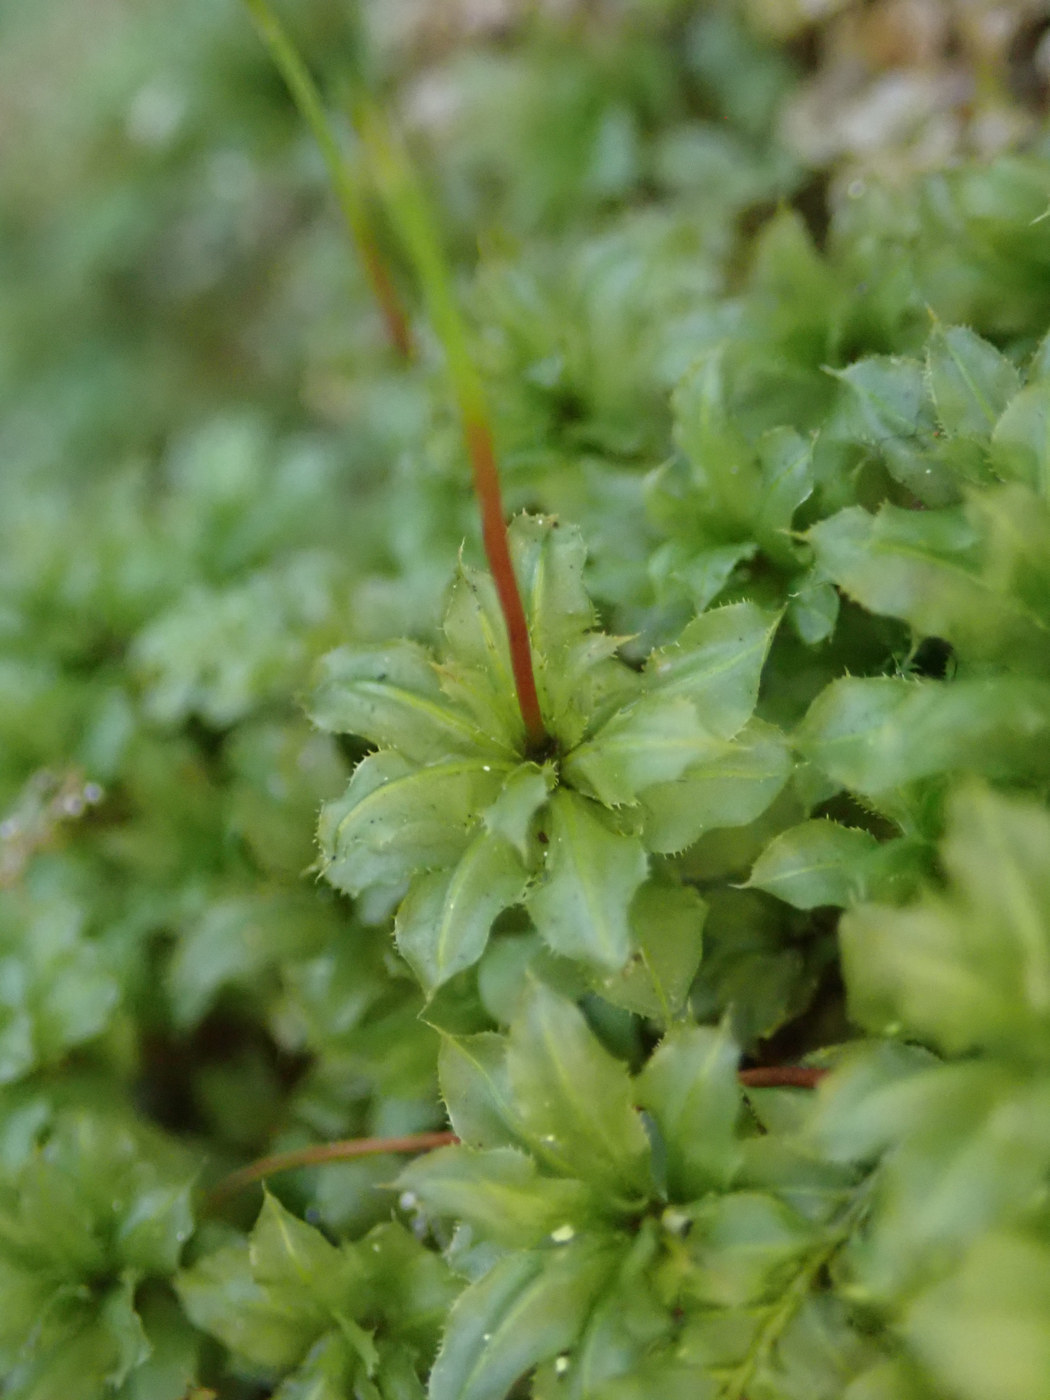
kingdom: Plantae
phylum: Bryophyta
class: Bryopsida
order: Bryales
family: Bryaceae
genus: Rhodobryum
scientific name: Rhodobryum ontariense
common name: Ontario rhodobryum moss
